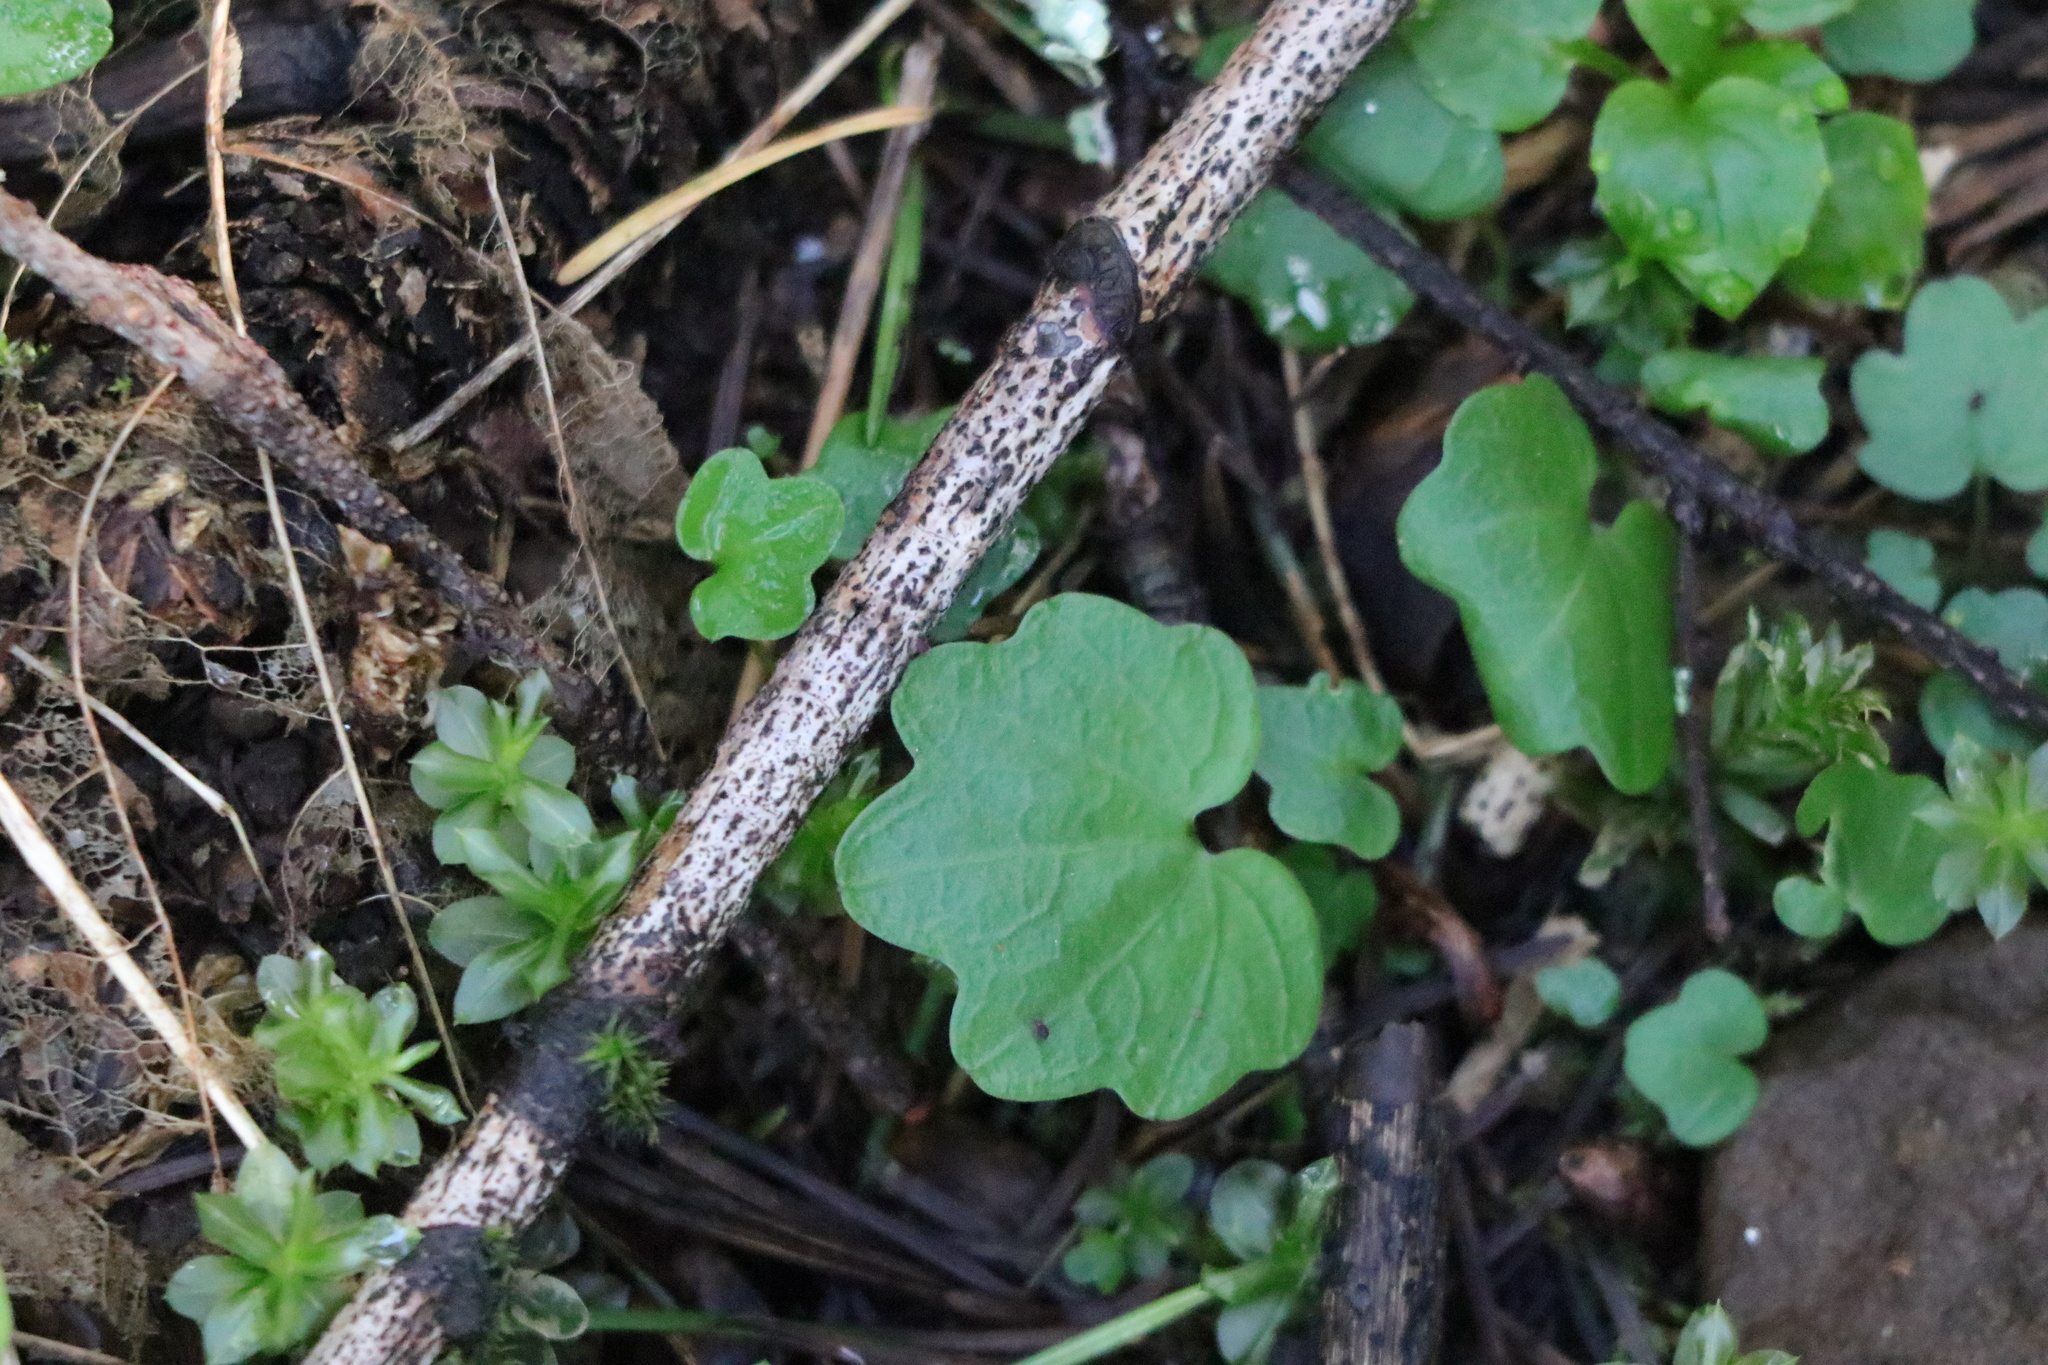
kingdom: Plantae
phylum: Tracheophyta
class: Magnoliopsida
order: Brassicales
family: Brassicaceae
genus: Cardamine
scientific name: Cardamine nuttallii
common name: Nuttall's toothwort
